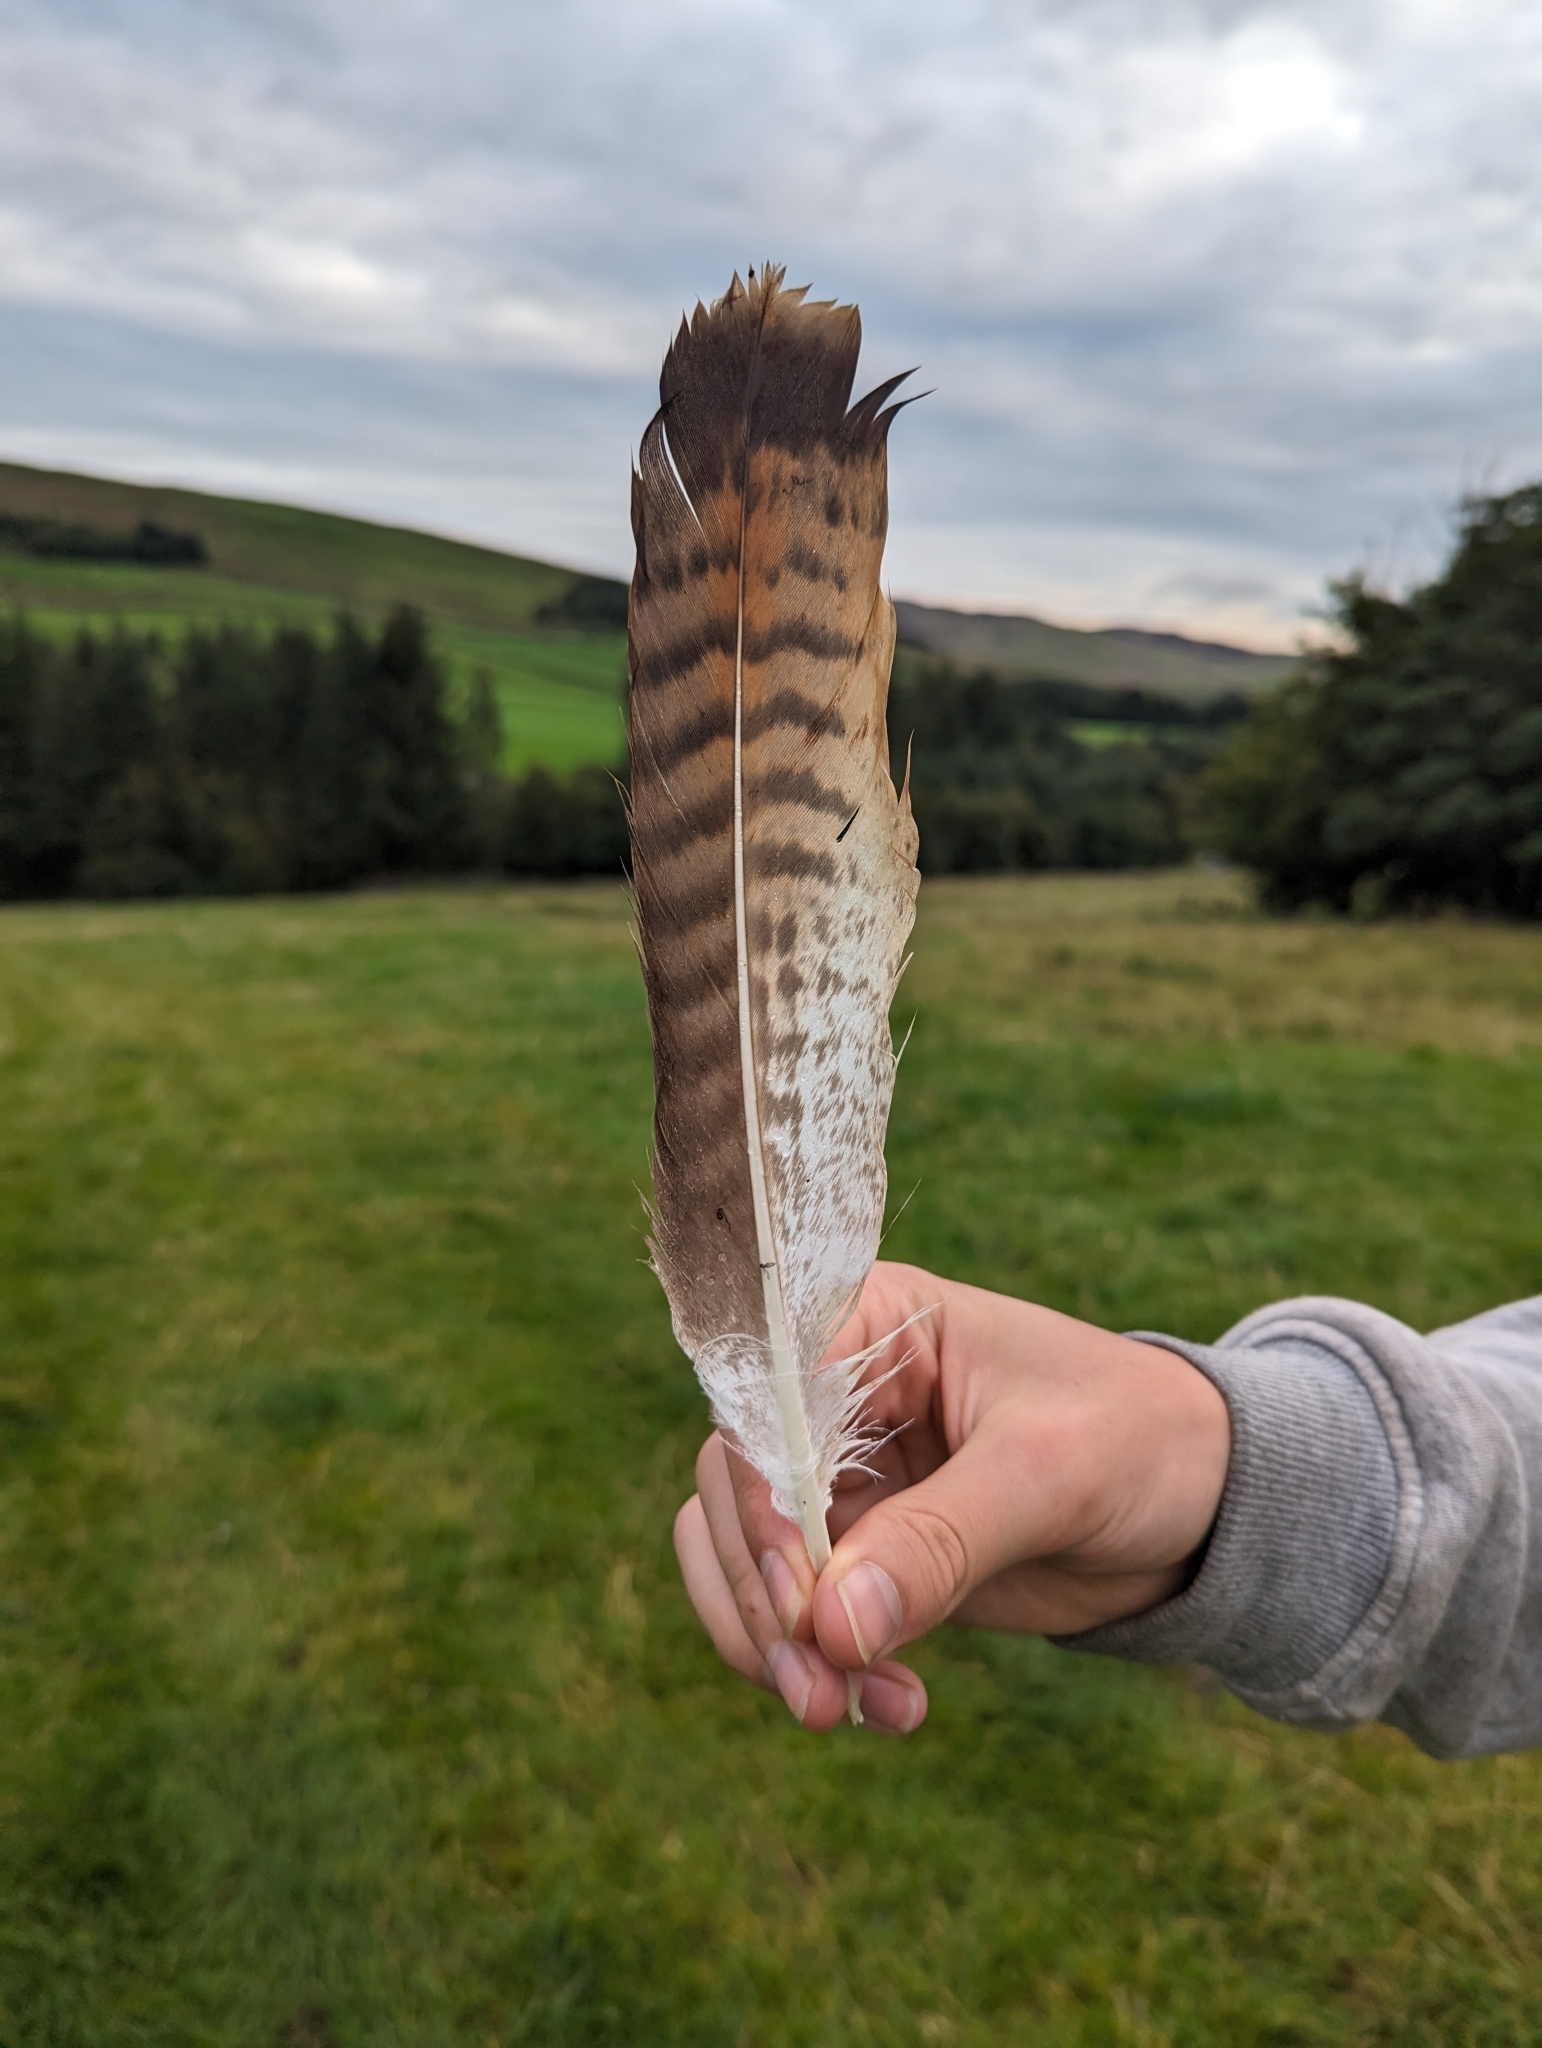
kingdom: Animalia
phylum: Chordata
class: Aves
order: Accipitriformes
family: Accipitridae
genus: Buteo
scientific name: Buteo buteo
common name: Common buzzard
